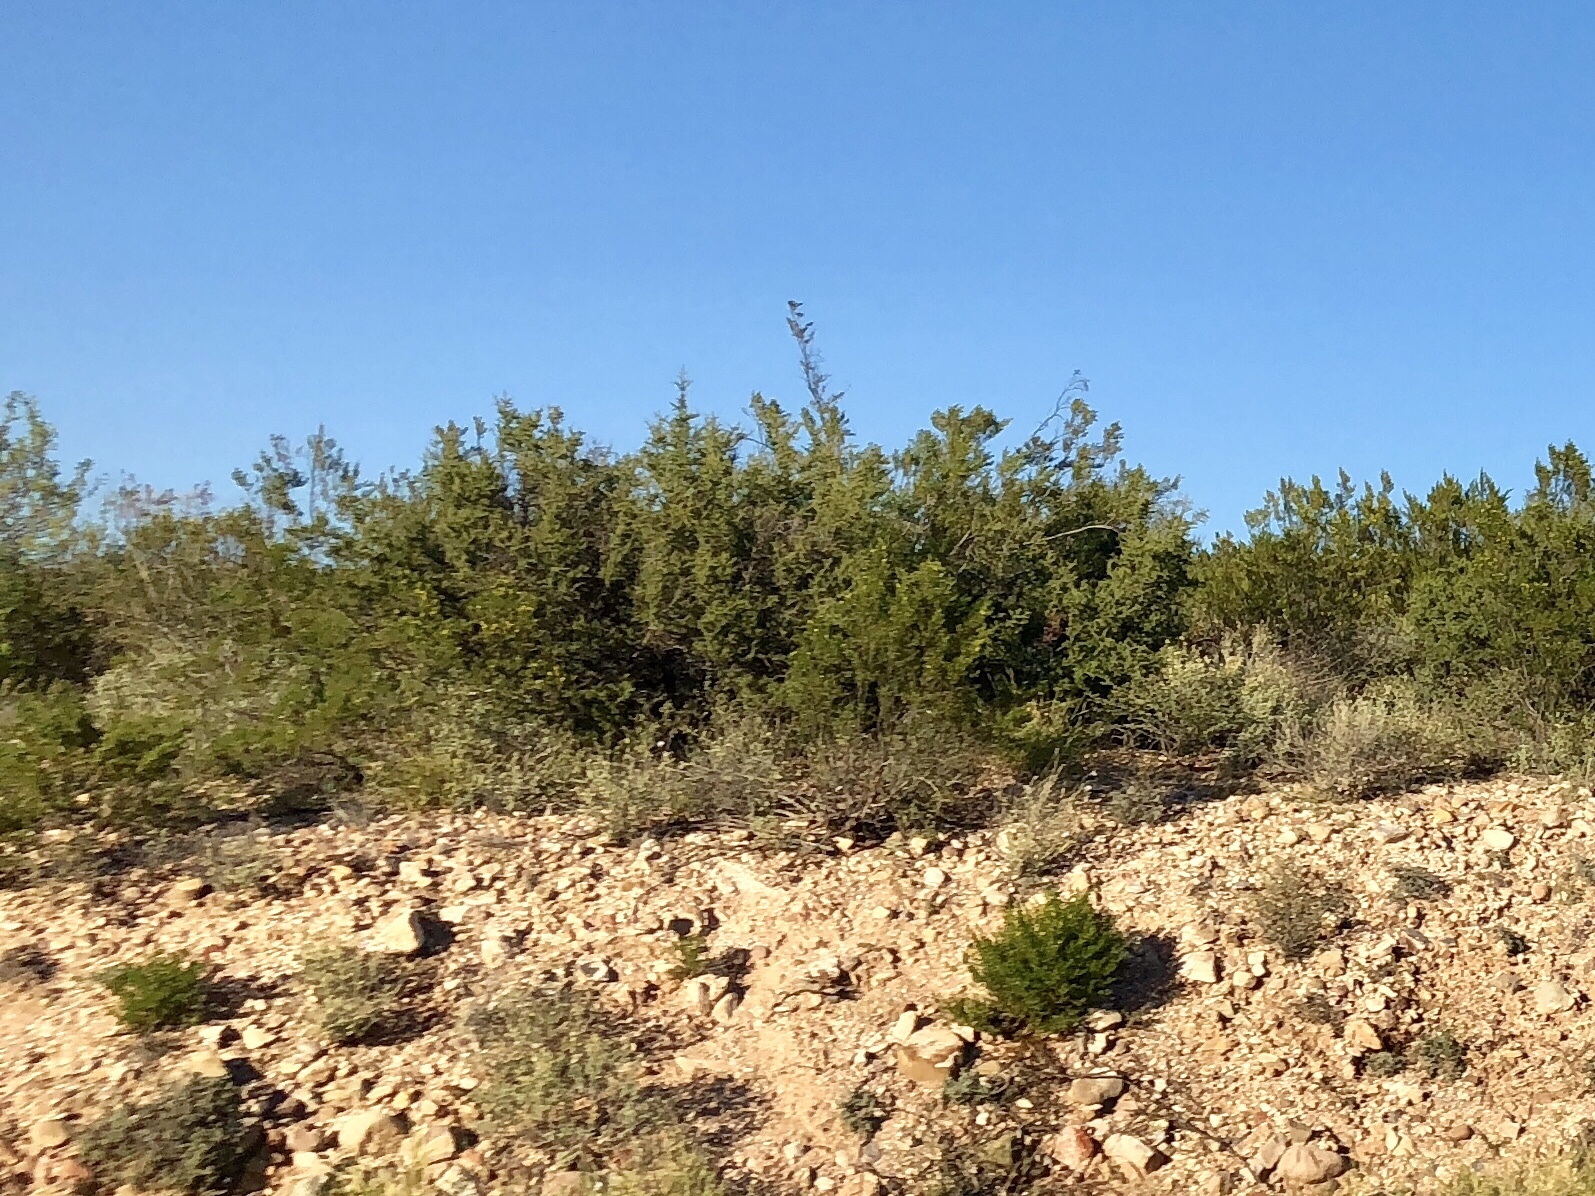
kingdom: Plantae
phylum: Tracheophyta
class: Magnoliopsida
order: Zygophyllales
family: Zygophyllaceae
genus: Larrea
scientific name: Larrea tridentata
